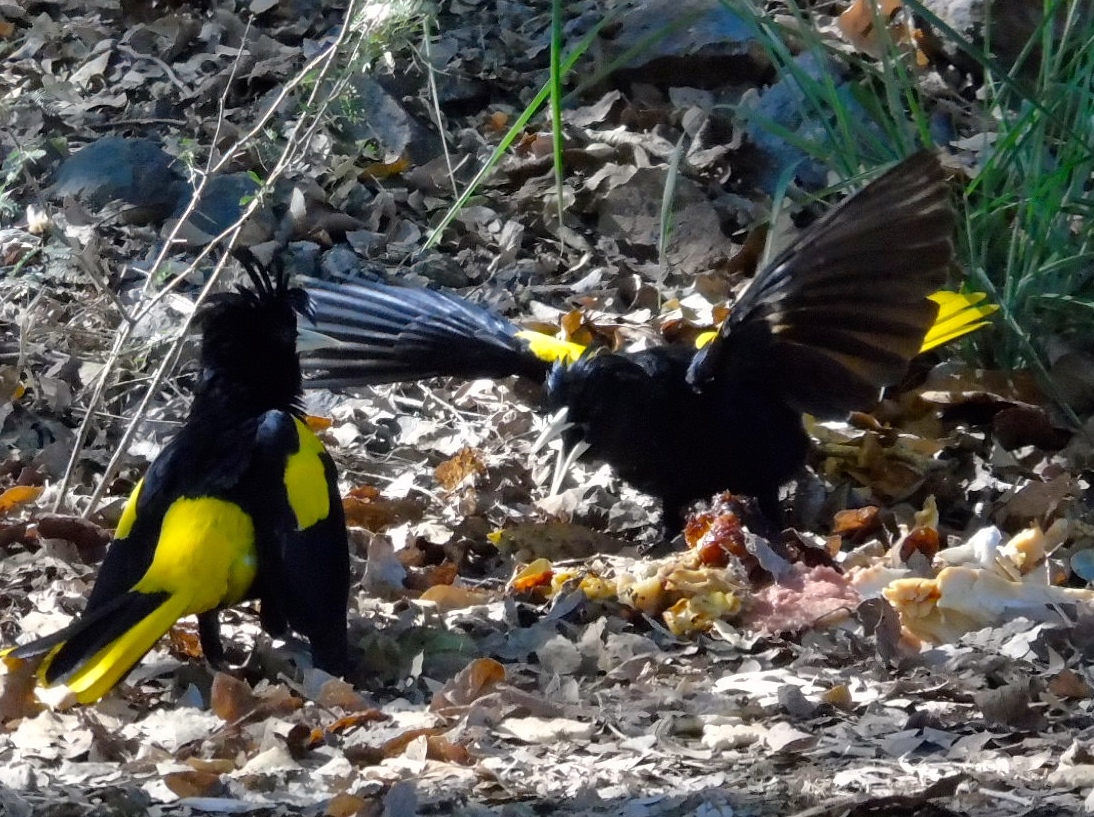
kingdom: Animalia
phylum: Chordata
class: Aves
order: Passeriformes
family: Icteridae
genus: Cacicus
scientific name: Cacicus melanicterus
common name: Yellow-winged cacique
